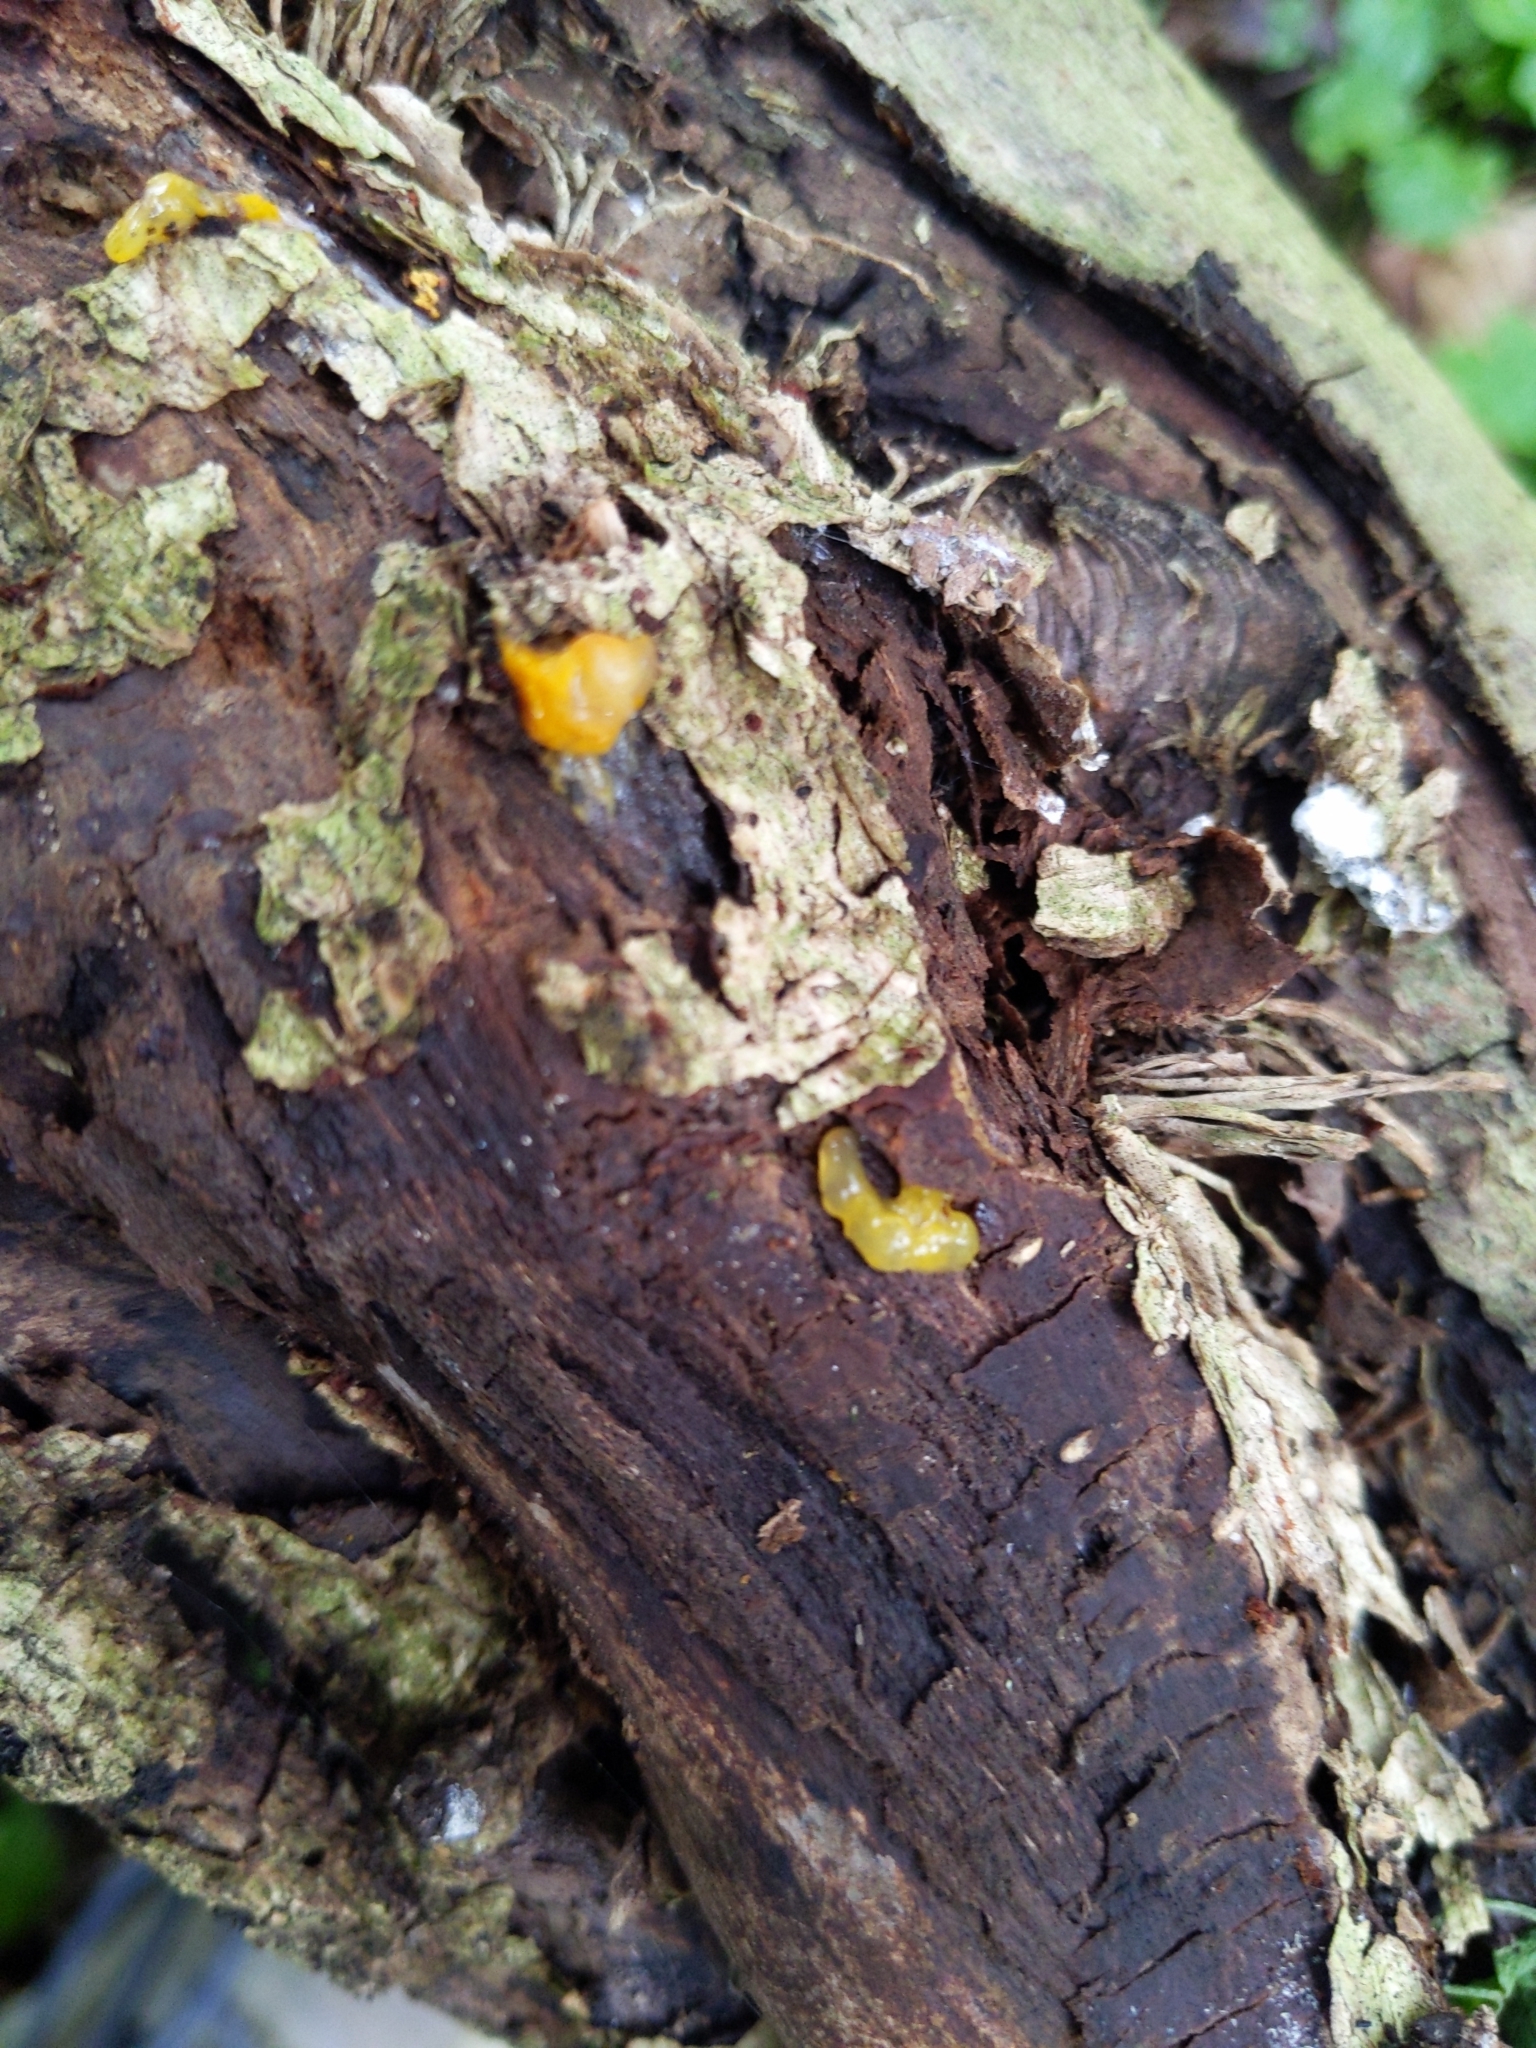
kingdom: Fungi
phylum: Basidiomycota
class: Tremellomycetes
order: Tremellales
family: Tremellaceae
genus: Tremella
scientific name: Tremella mesenterica
